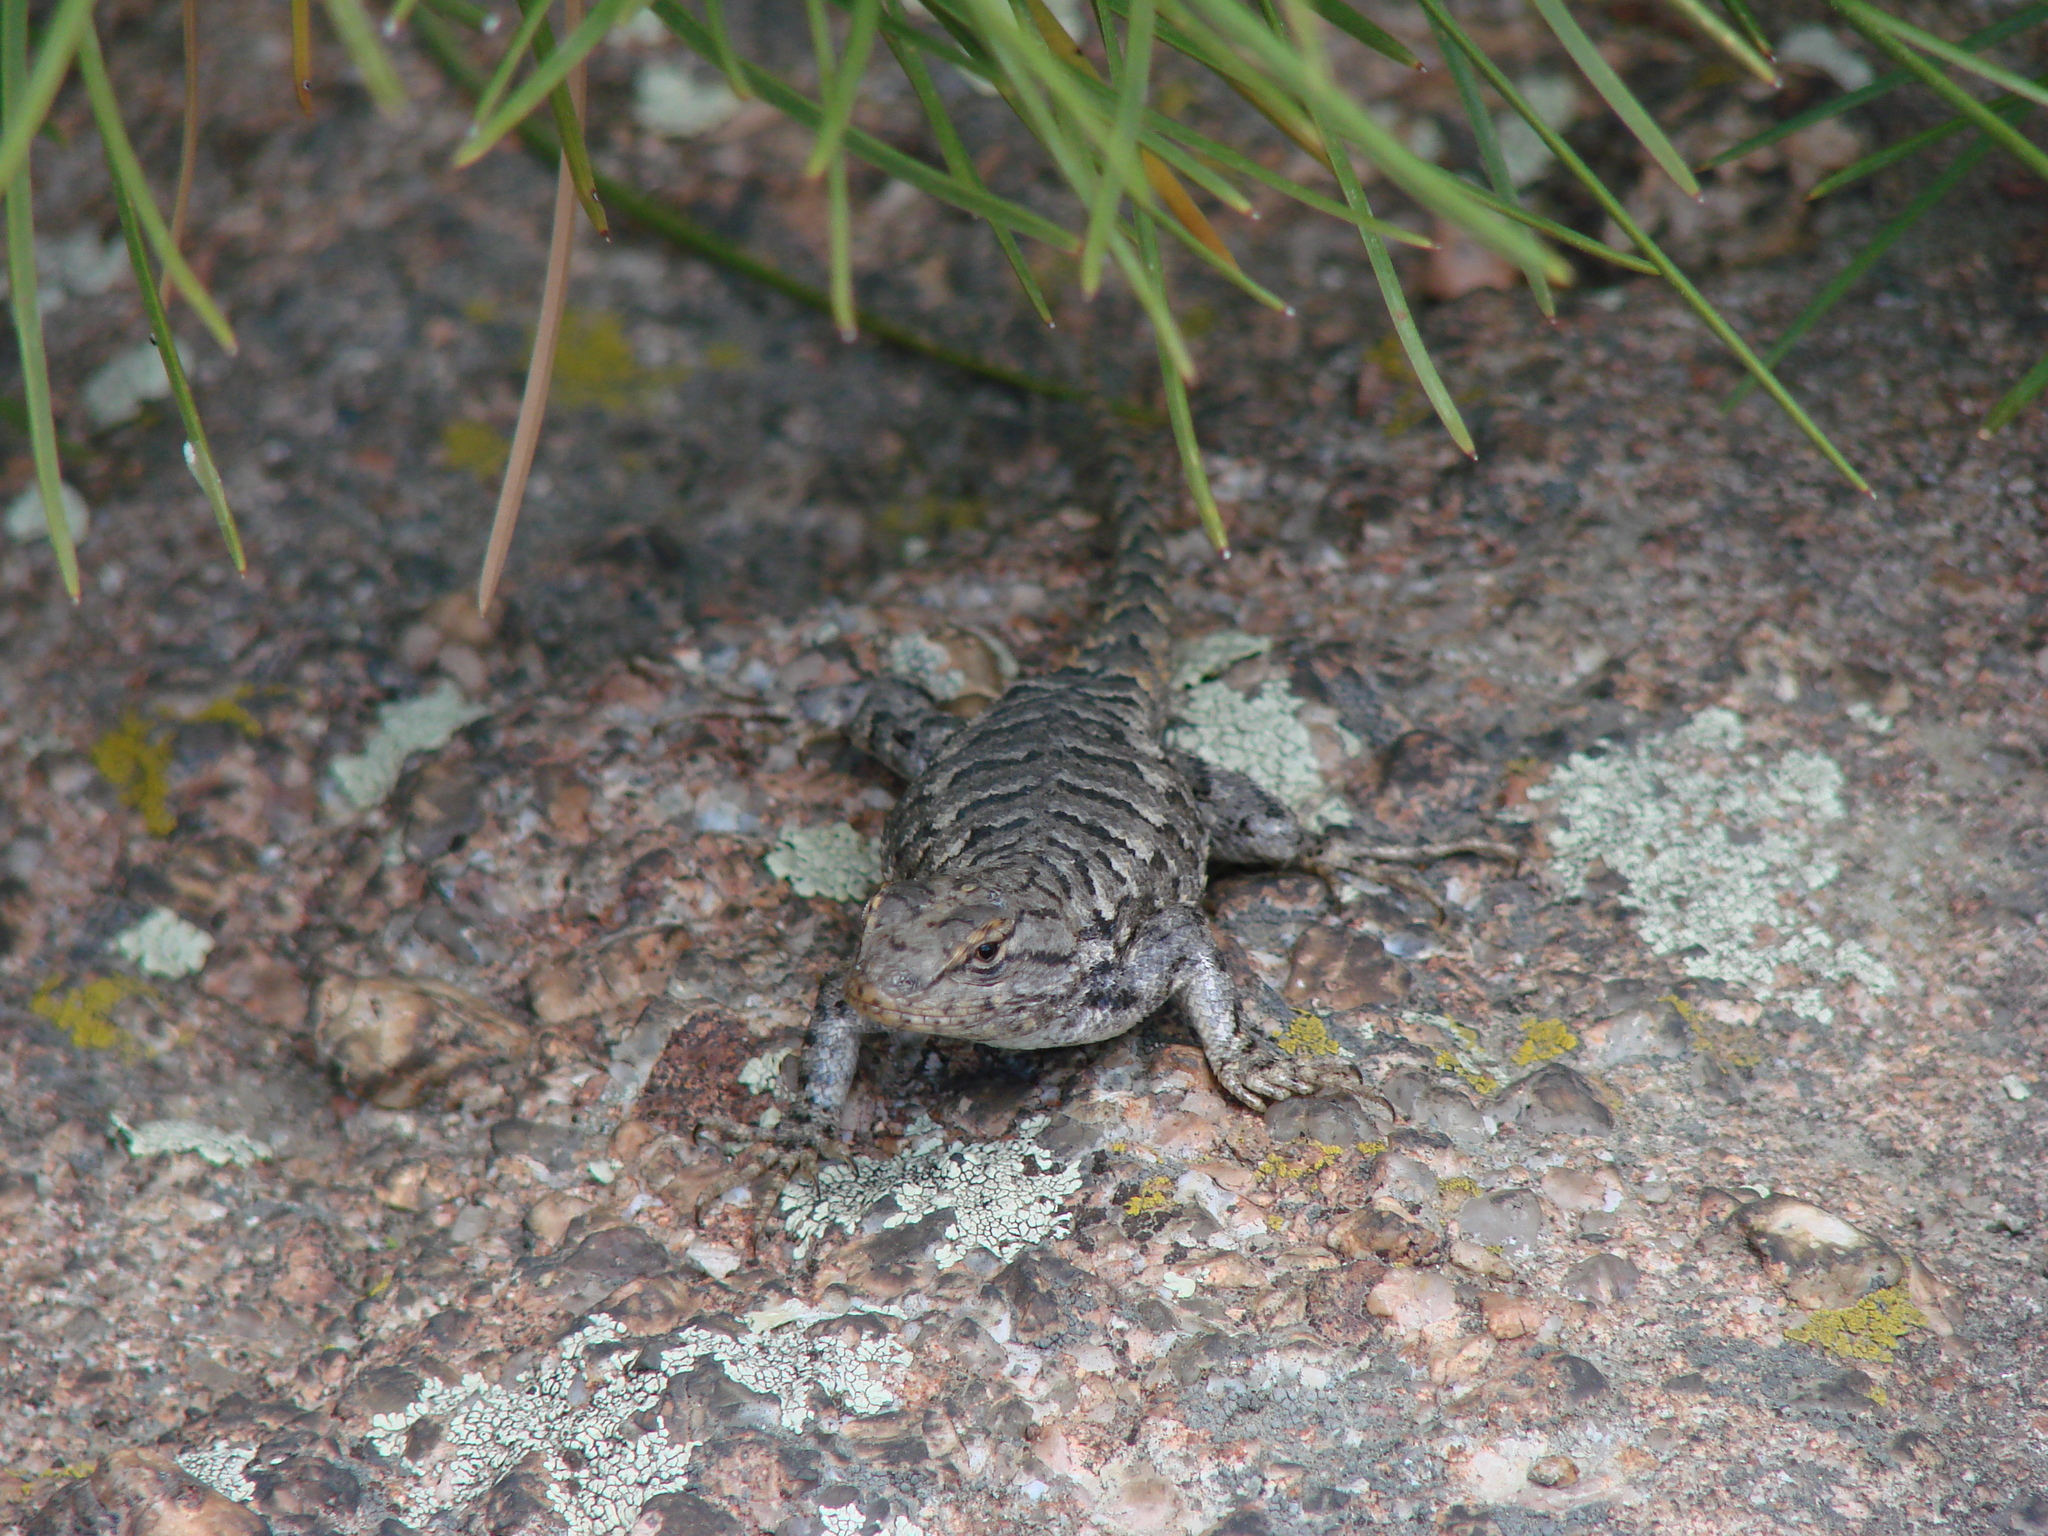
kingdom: Animalia
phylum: Chordata
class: Squamata
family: Phrynosomatidae
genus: Sceloporus
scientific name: Sceloporus consobrinus
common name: Southern prairie lizard
